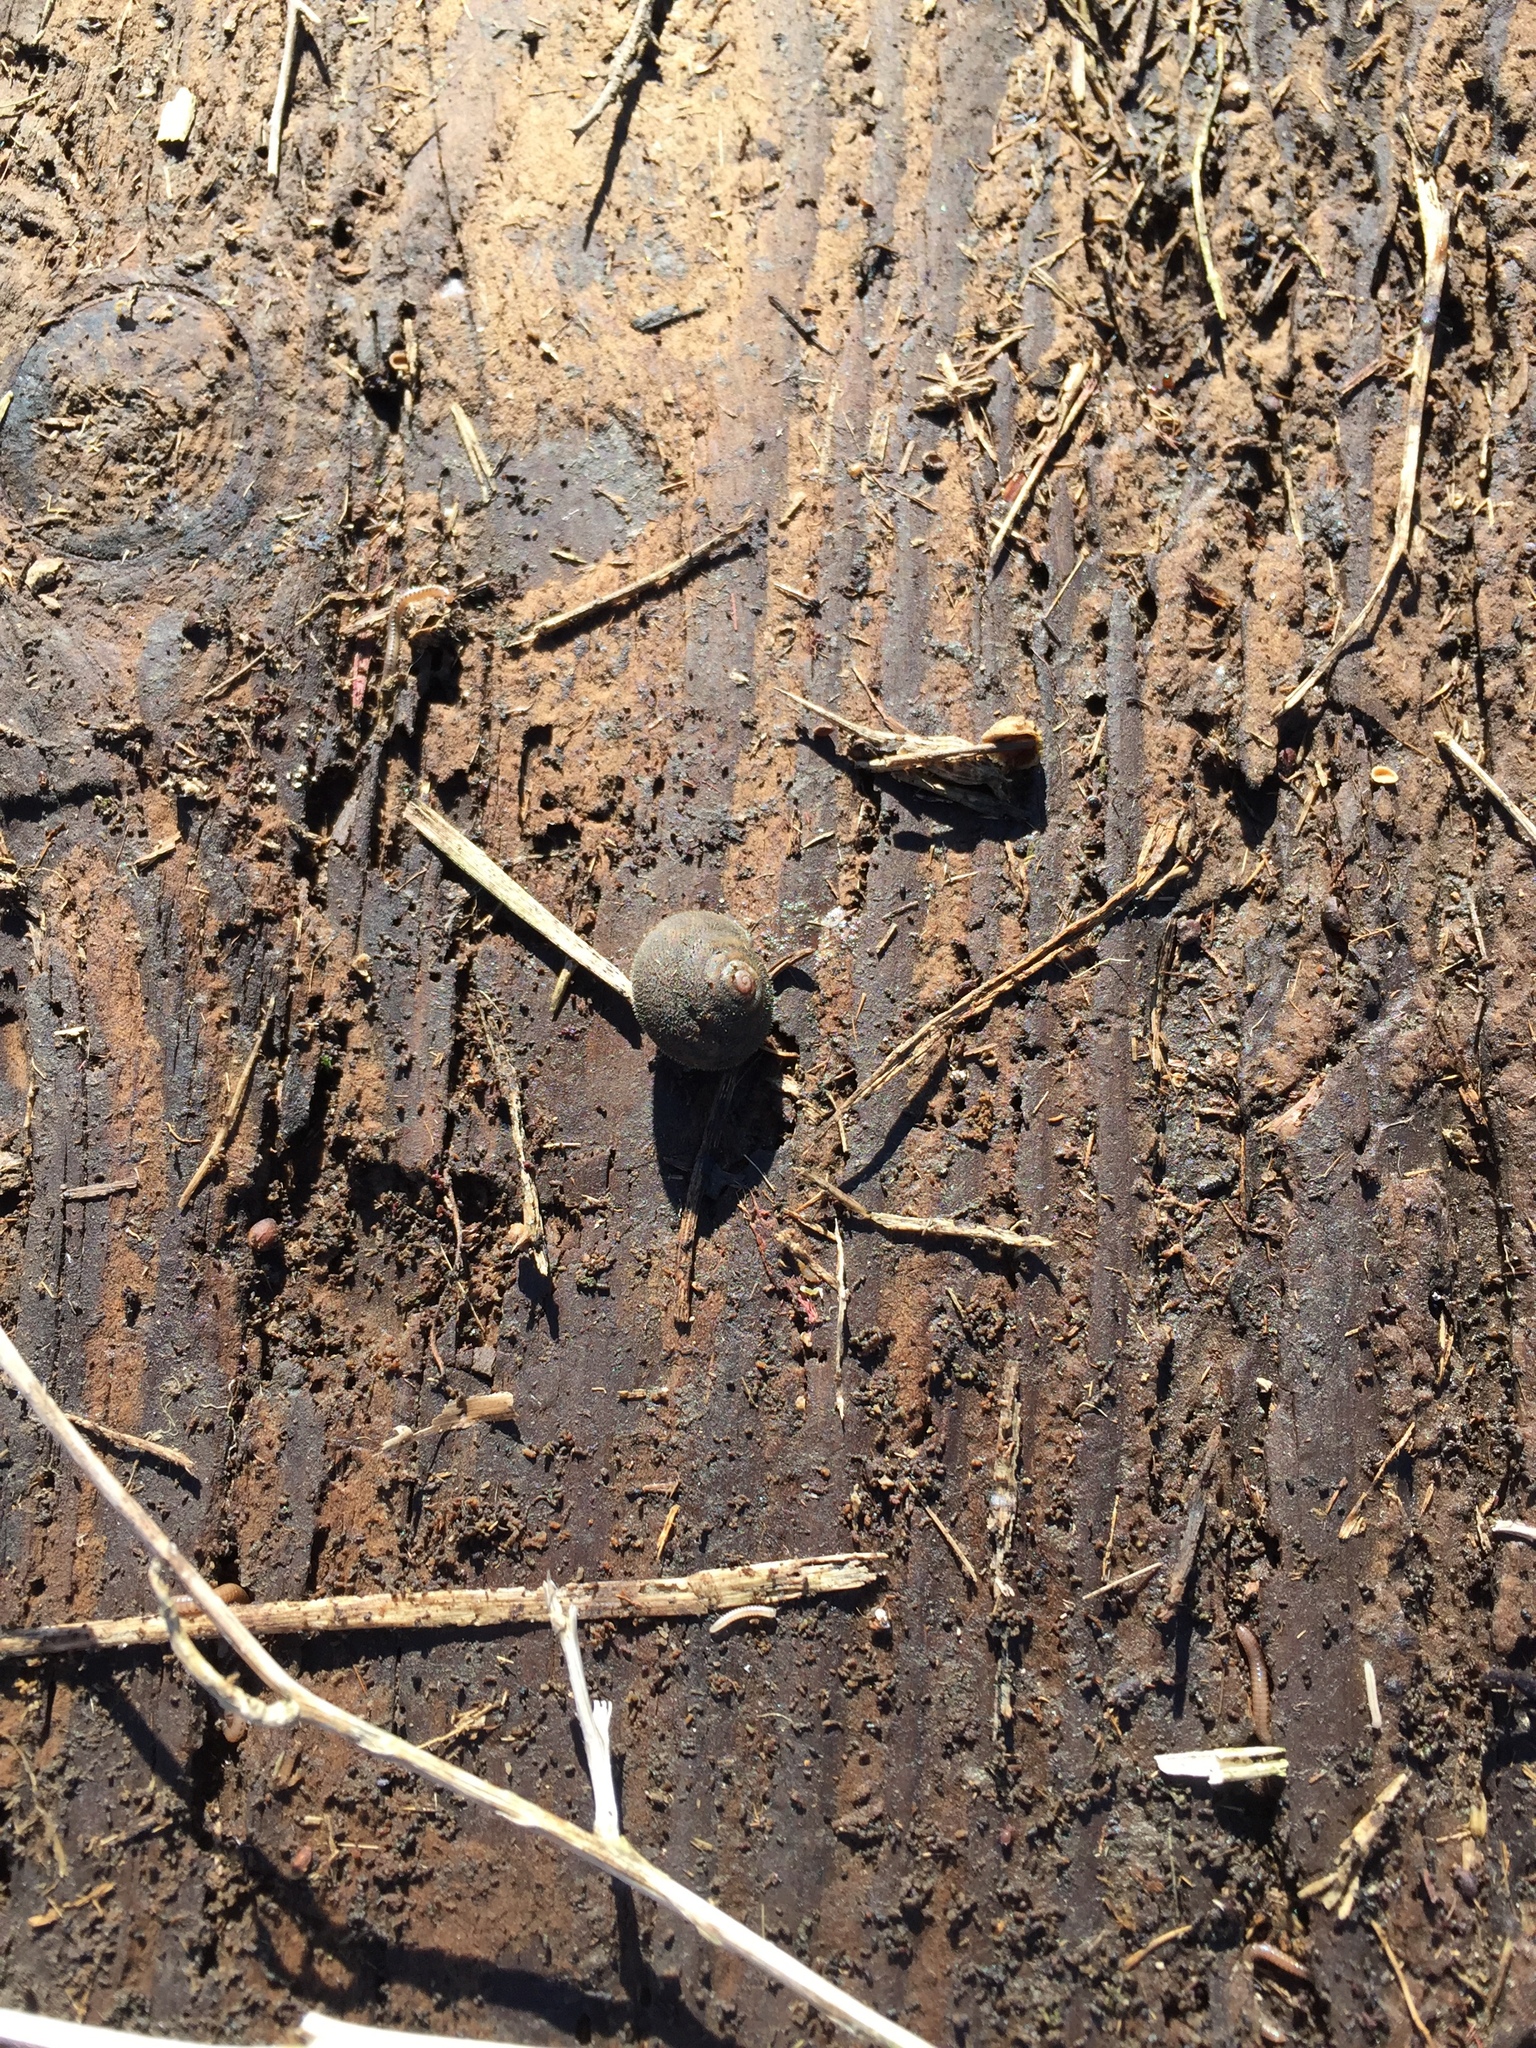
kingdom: Animalia
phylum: Mollusca
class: Gastropoda
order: Stylommatophora
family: Polygyridae
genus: Vespericola
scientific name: Vespericola columbianus
